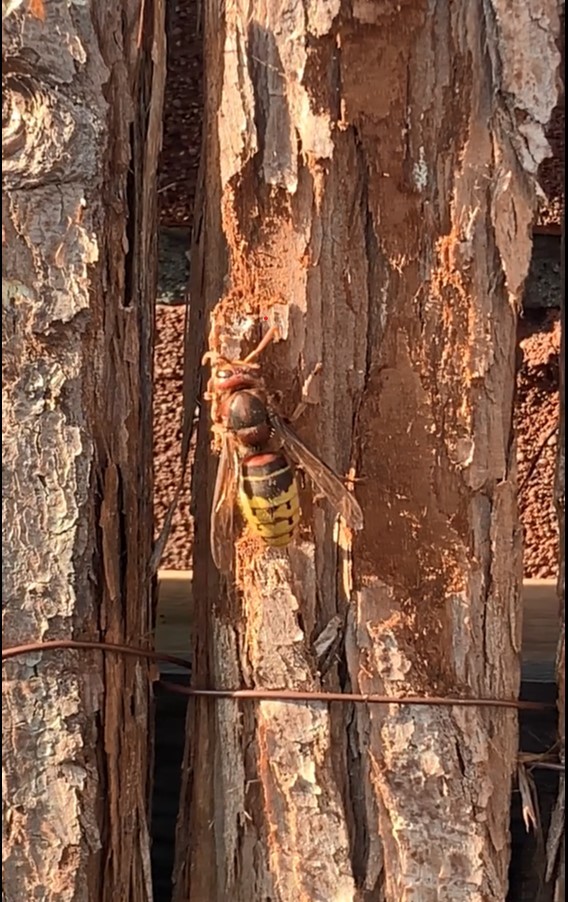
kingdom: Animalia
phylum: Arthropoda
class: Insecta
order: Hymenoptera
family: Vespidae
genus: Vespa
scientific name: Vespa crabro
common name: Hornet
